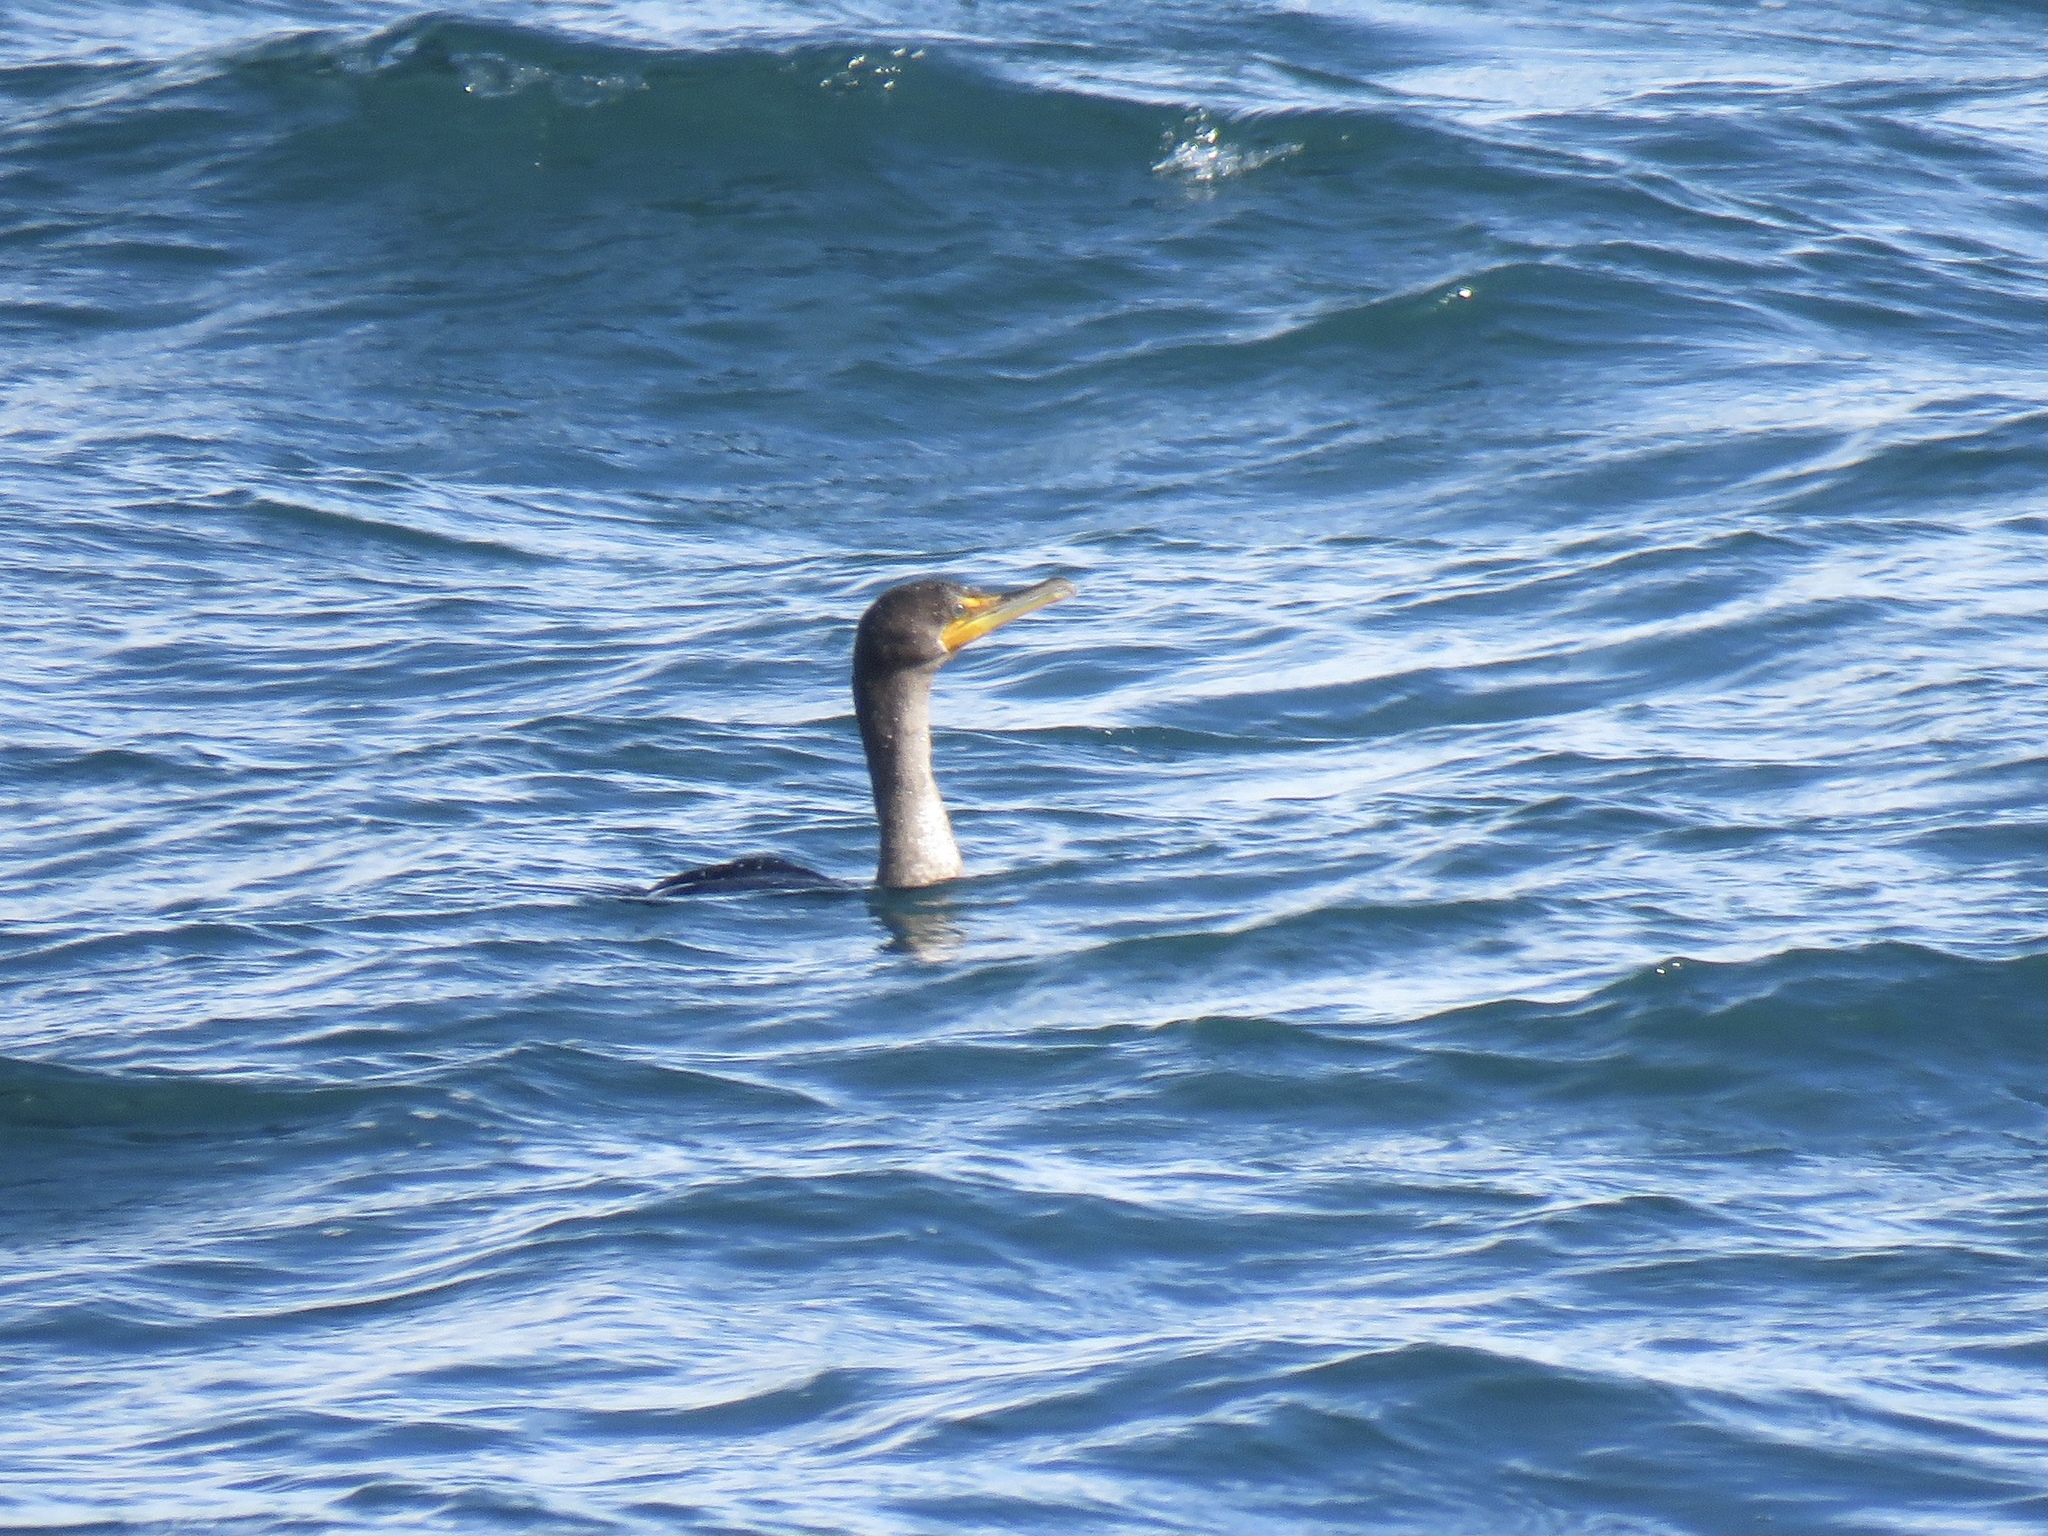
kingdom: Animalia
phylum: Chordata
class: Aves
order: Suliformes
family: Phalacrocoracidae
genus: Phalacrocorax
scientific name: Phalacrocorax auritus
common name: Double-crested cormorant
